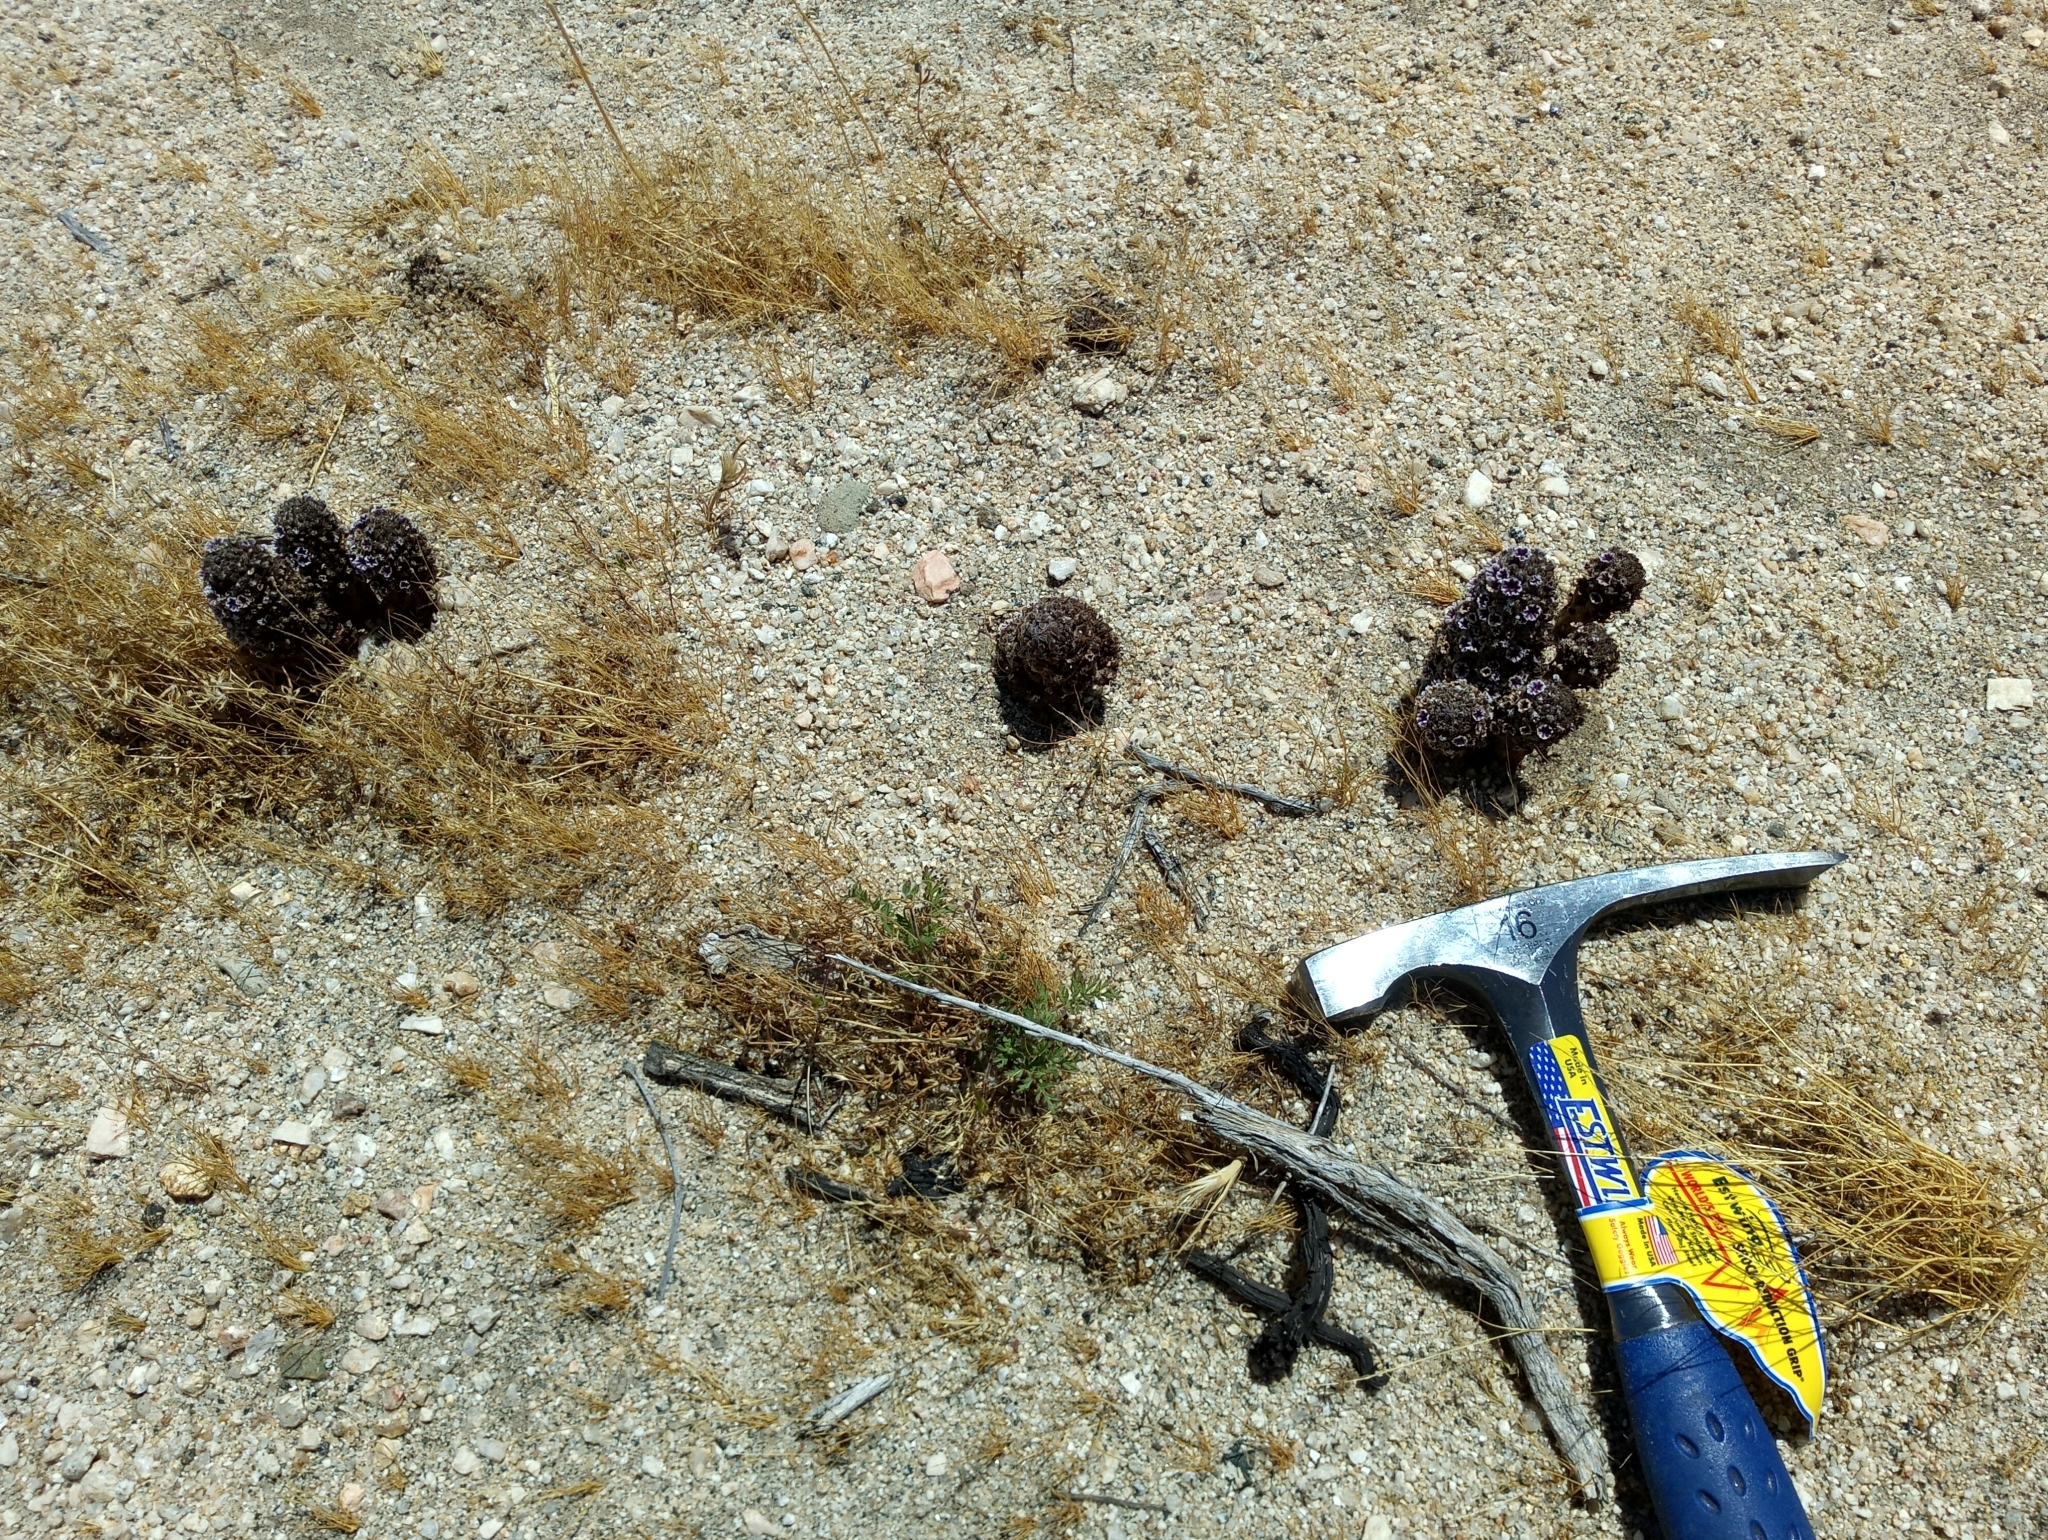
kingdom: Plantae
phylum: Tracheophyta
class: Magnoliopsida
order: Boraginales
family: Lennoaceae
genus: Pholisma
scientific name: Pholisma arenarium
